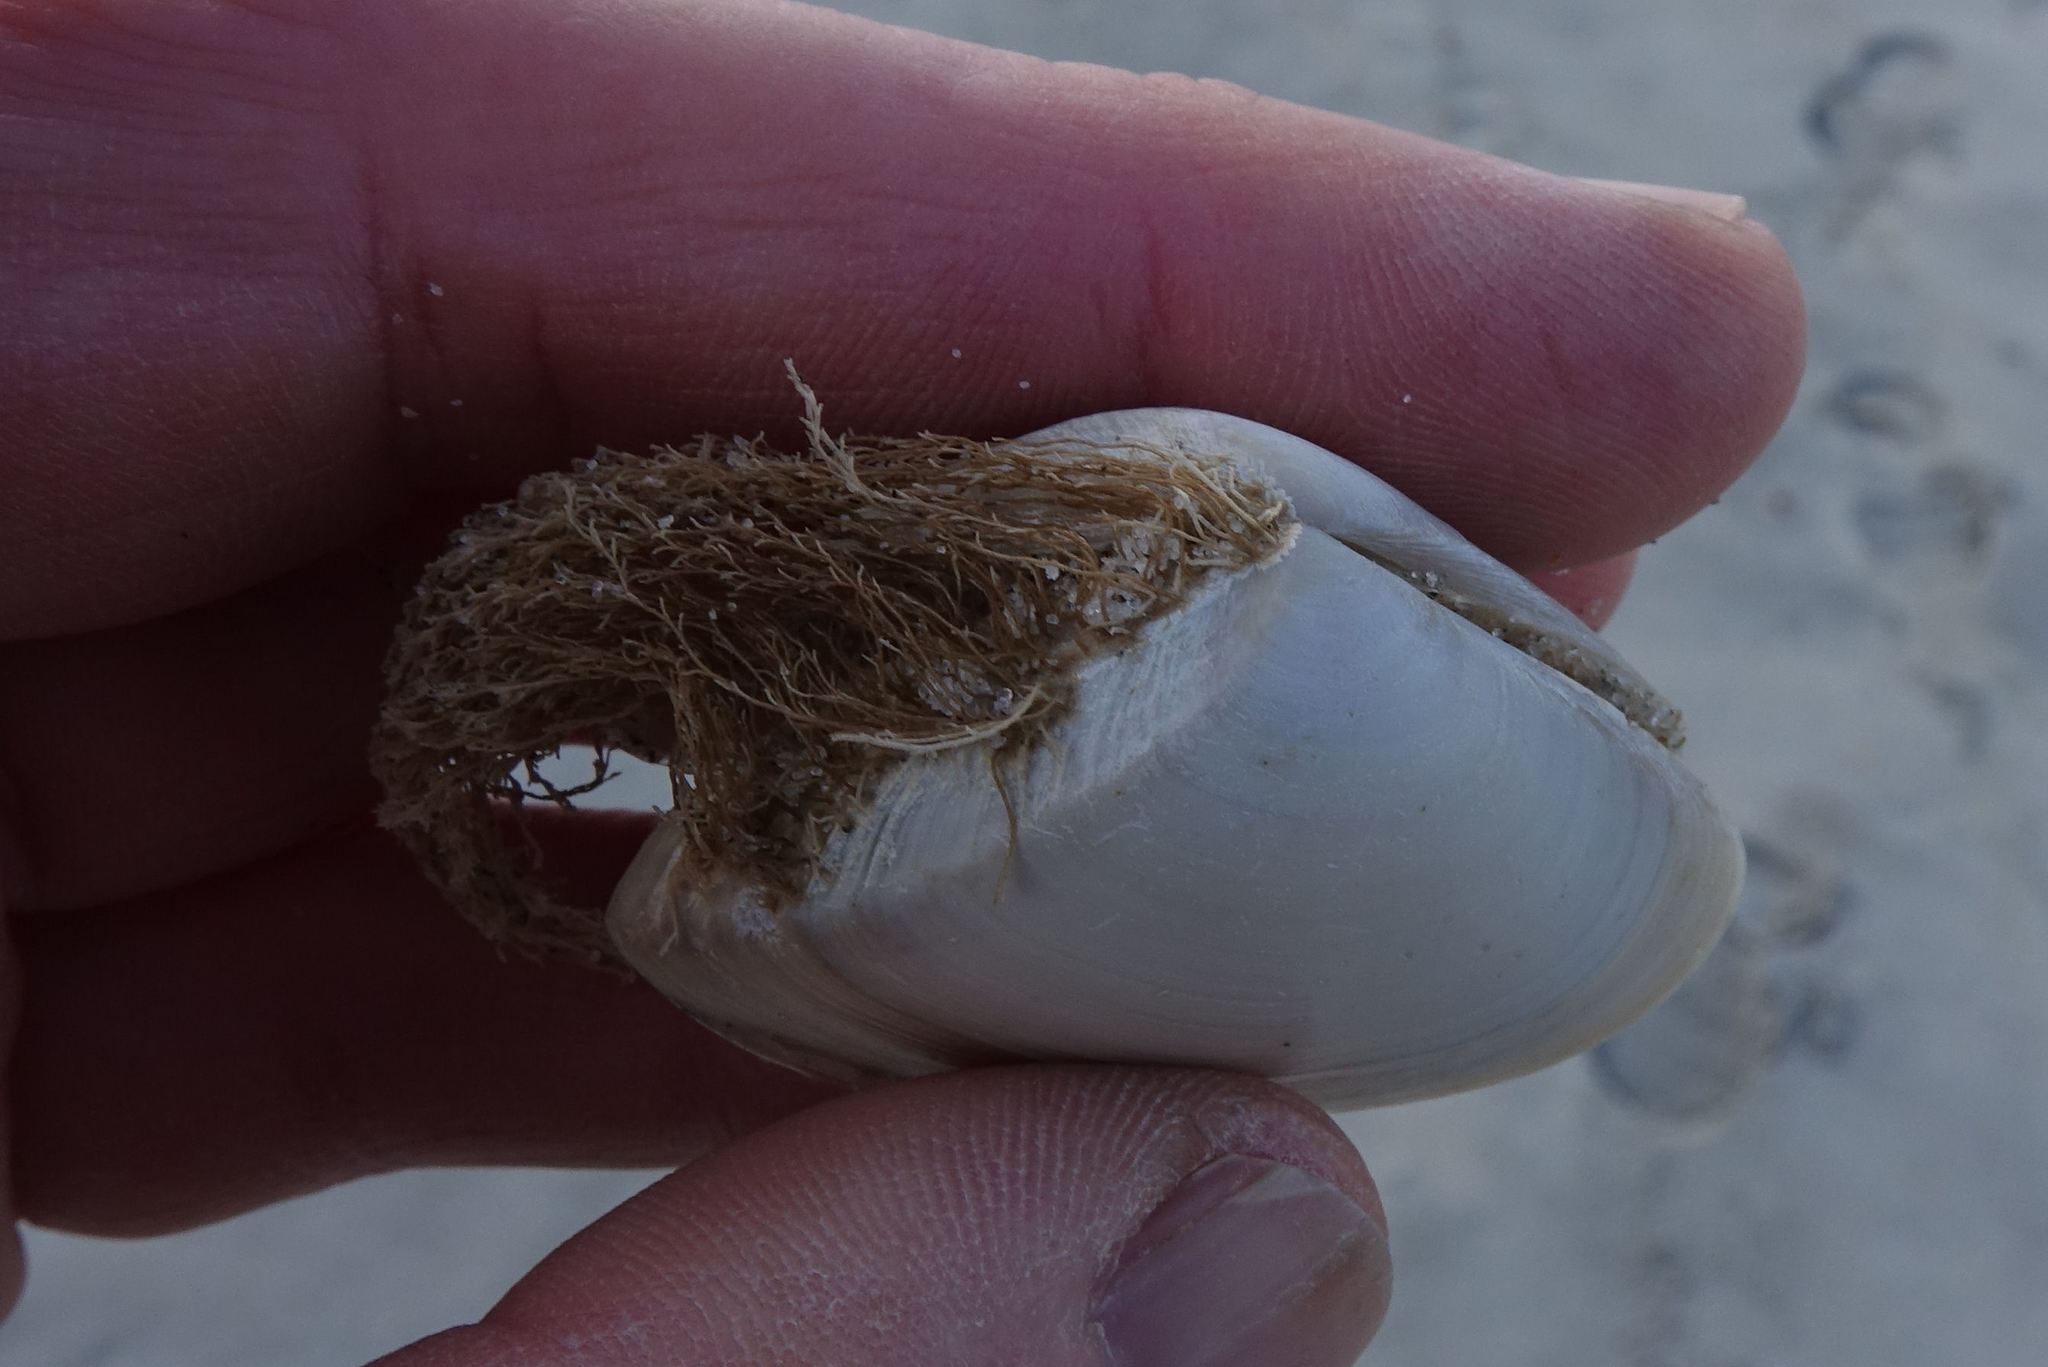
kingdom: Animalia
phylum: Mollusca
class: Bivalvia
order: Venerida
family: Mesodesmatidae
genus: Paphies
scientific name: Paphies subtriangulata
